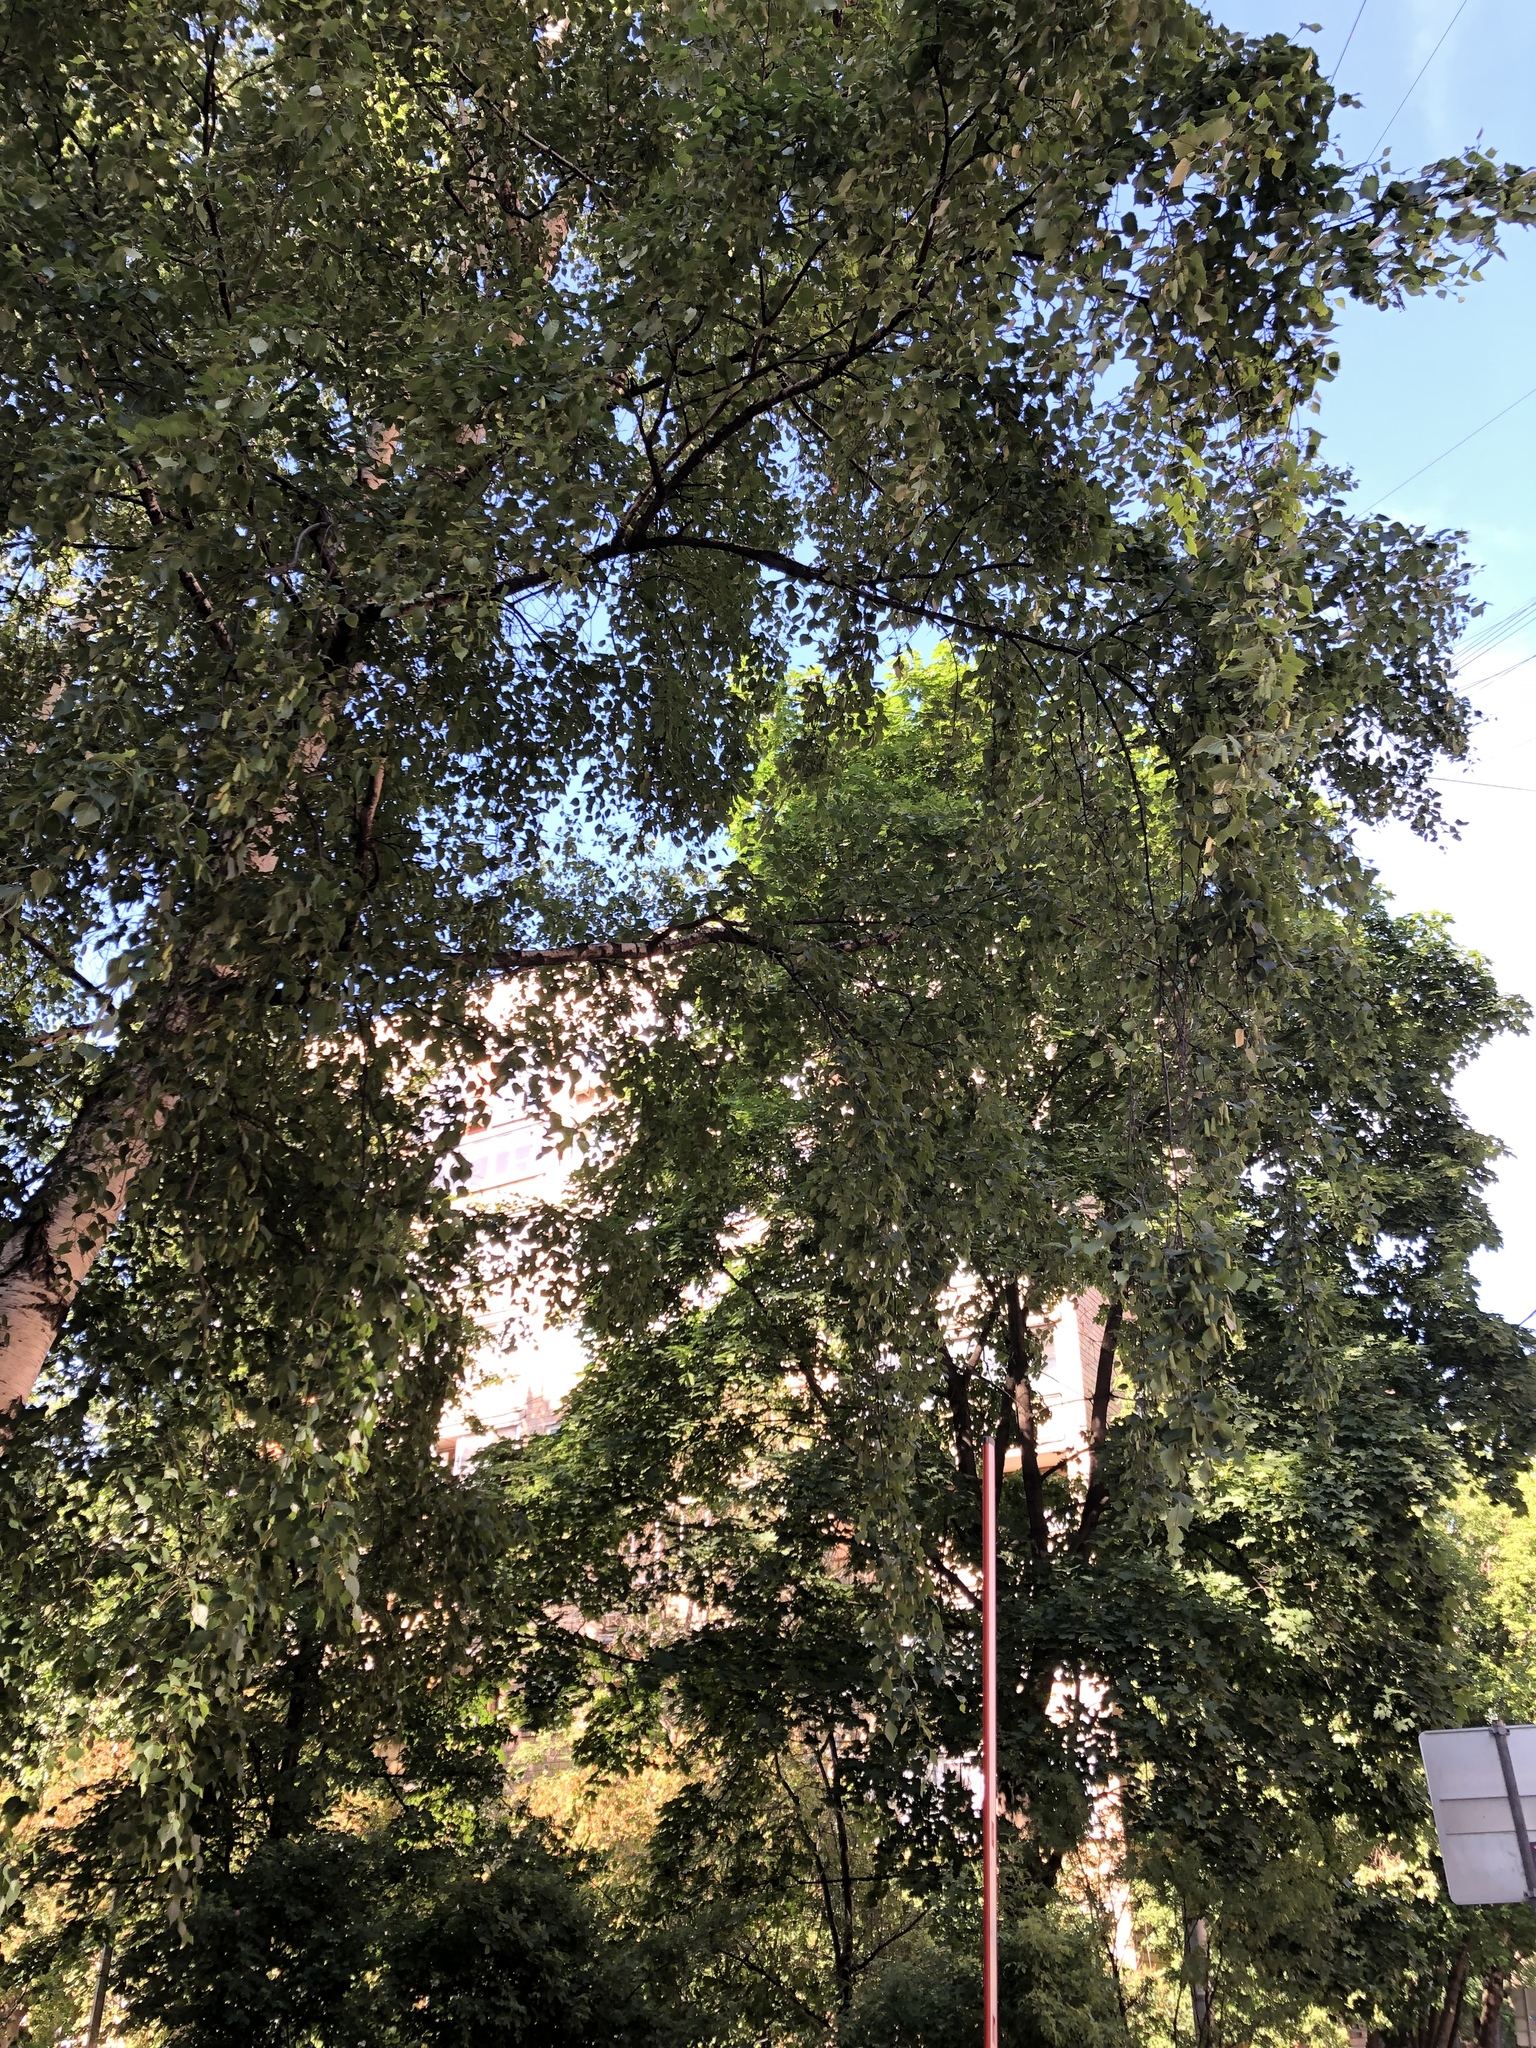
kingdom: Plantae
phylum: Tracheophyta
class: Magnoliopsida
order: Fagales
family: Betulaceae
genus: Betula
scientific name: Betula pendula
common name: Silver birch
